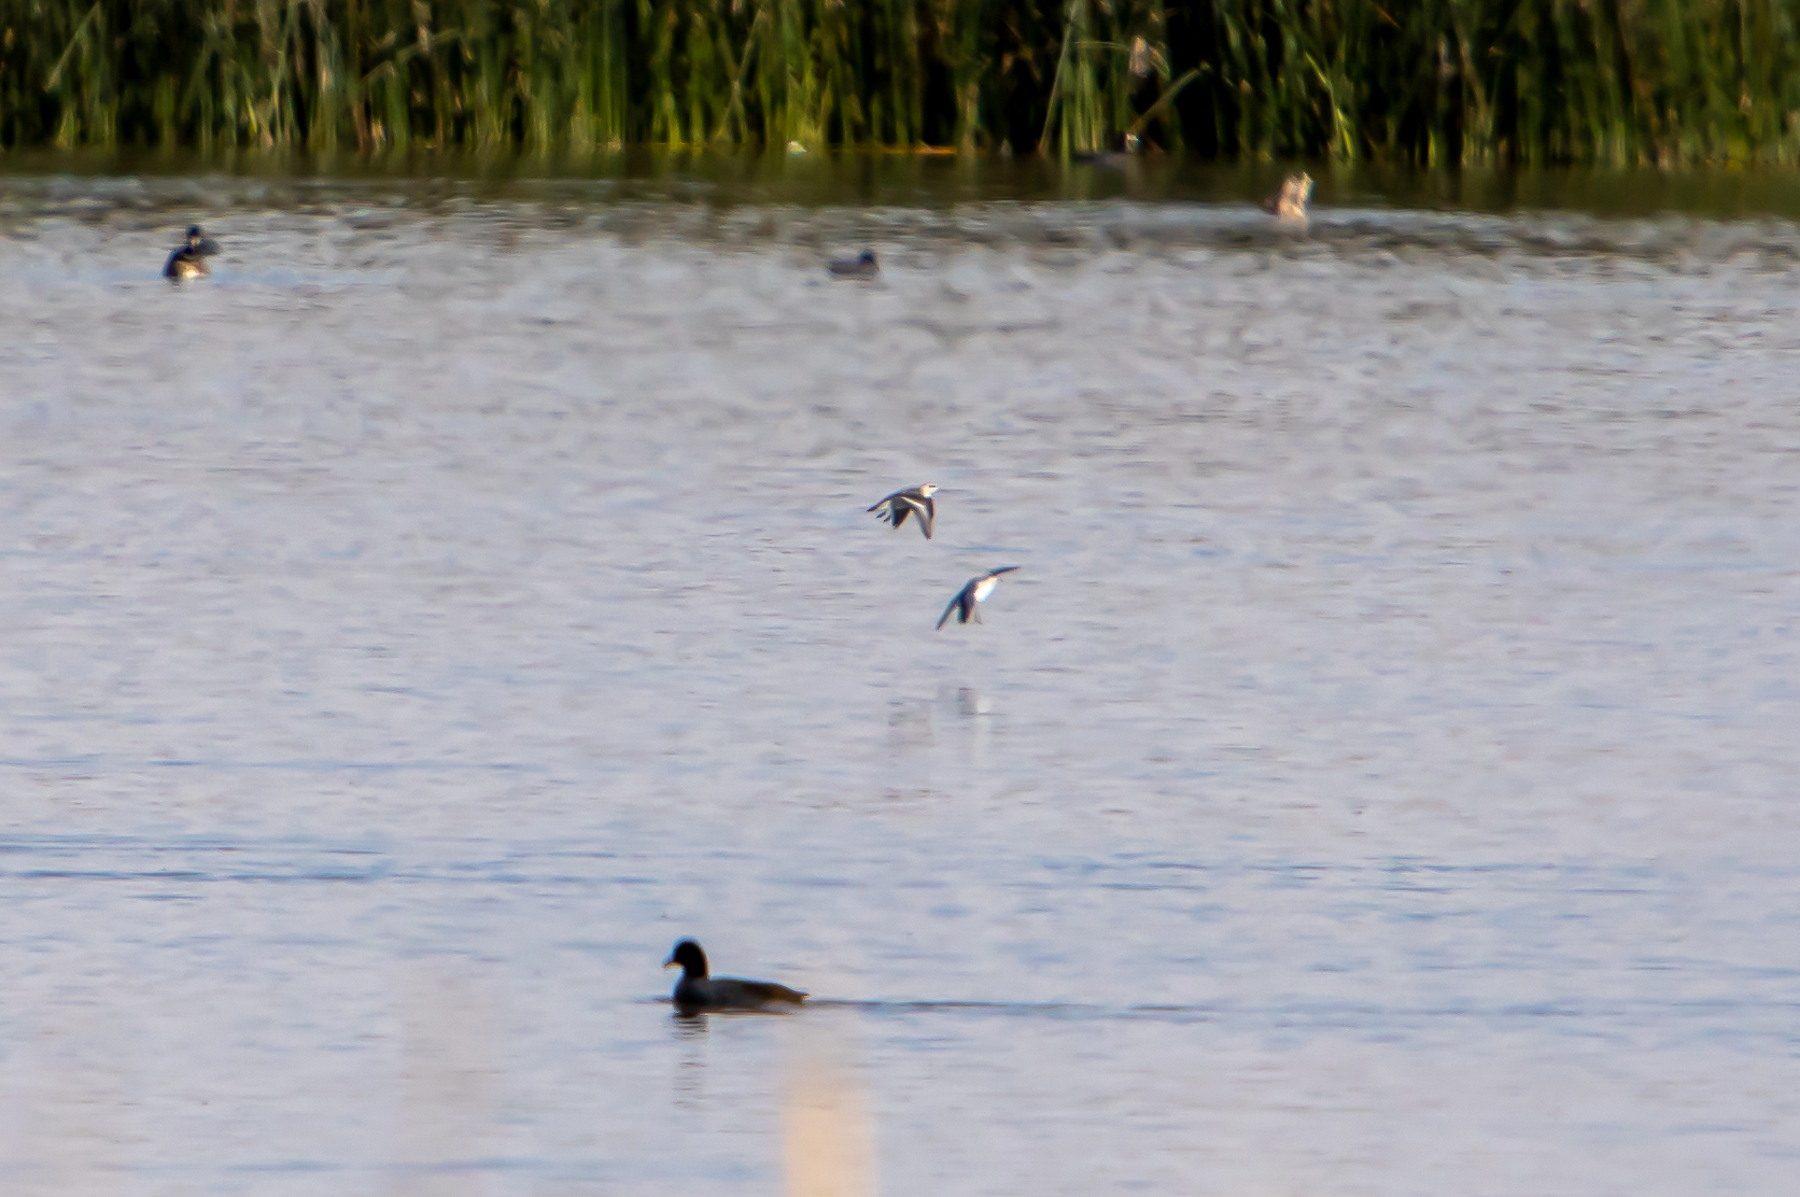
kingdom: Animalia
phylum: Chordata
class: Aves
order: Charadriiformes
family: Scolopacidae
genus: Phalaropus
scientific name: Phalaropus lobatus
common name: Red-necked phalarope
